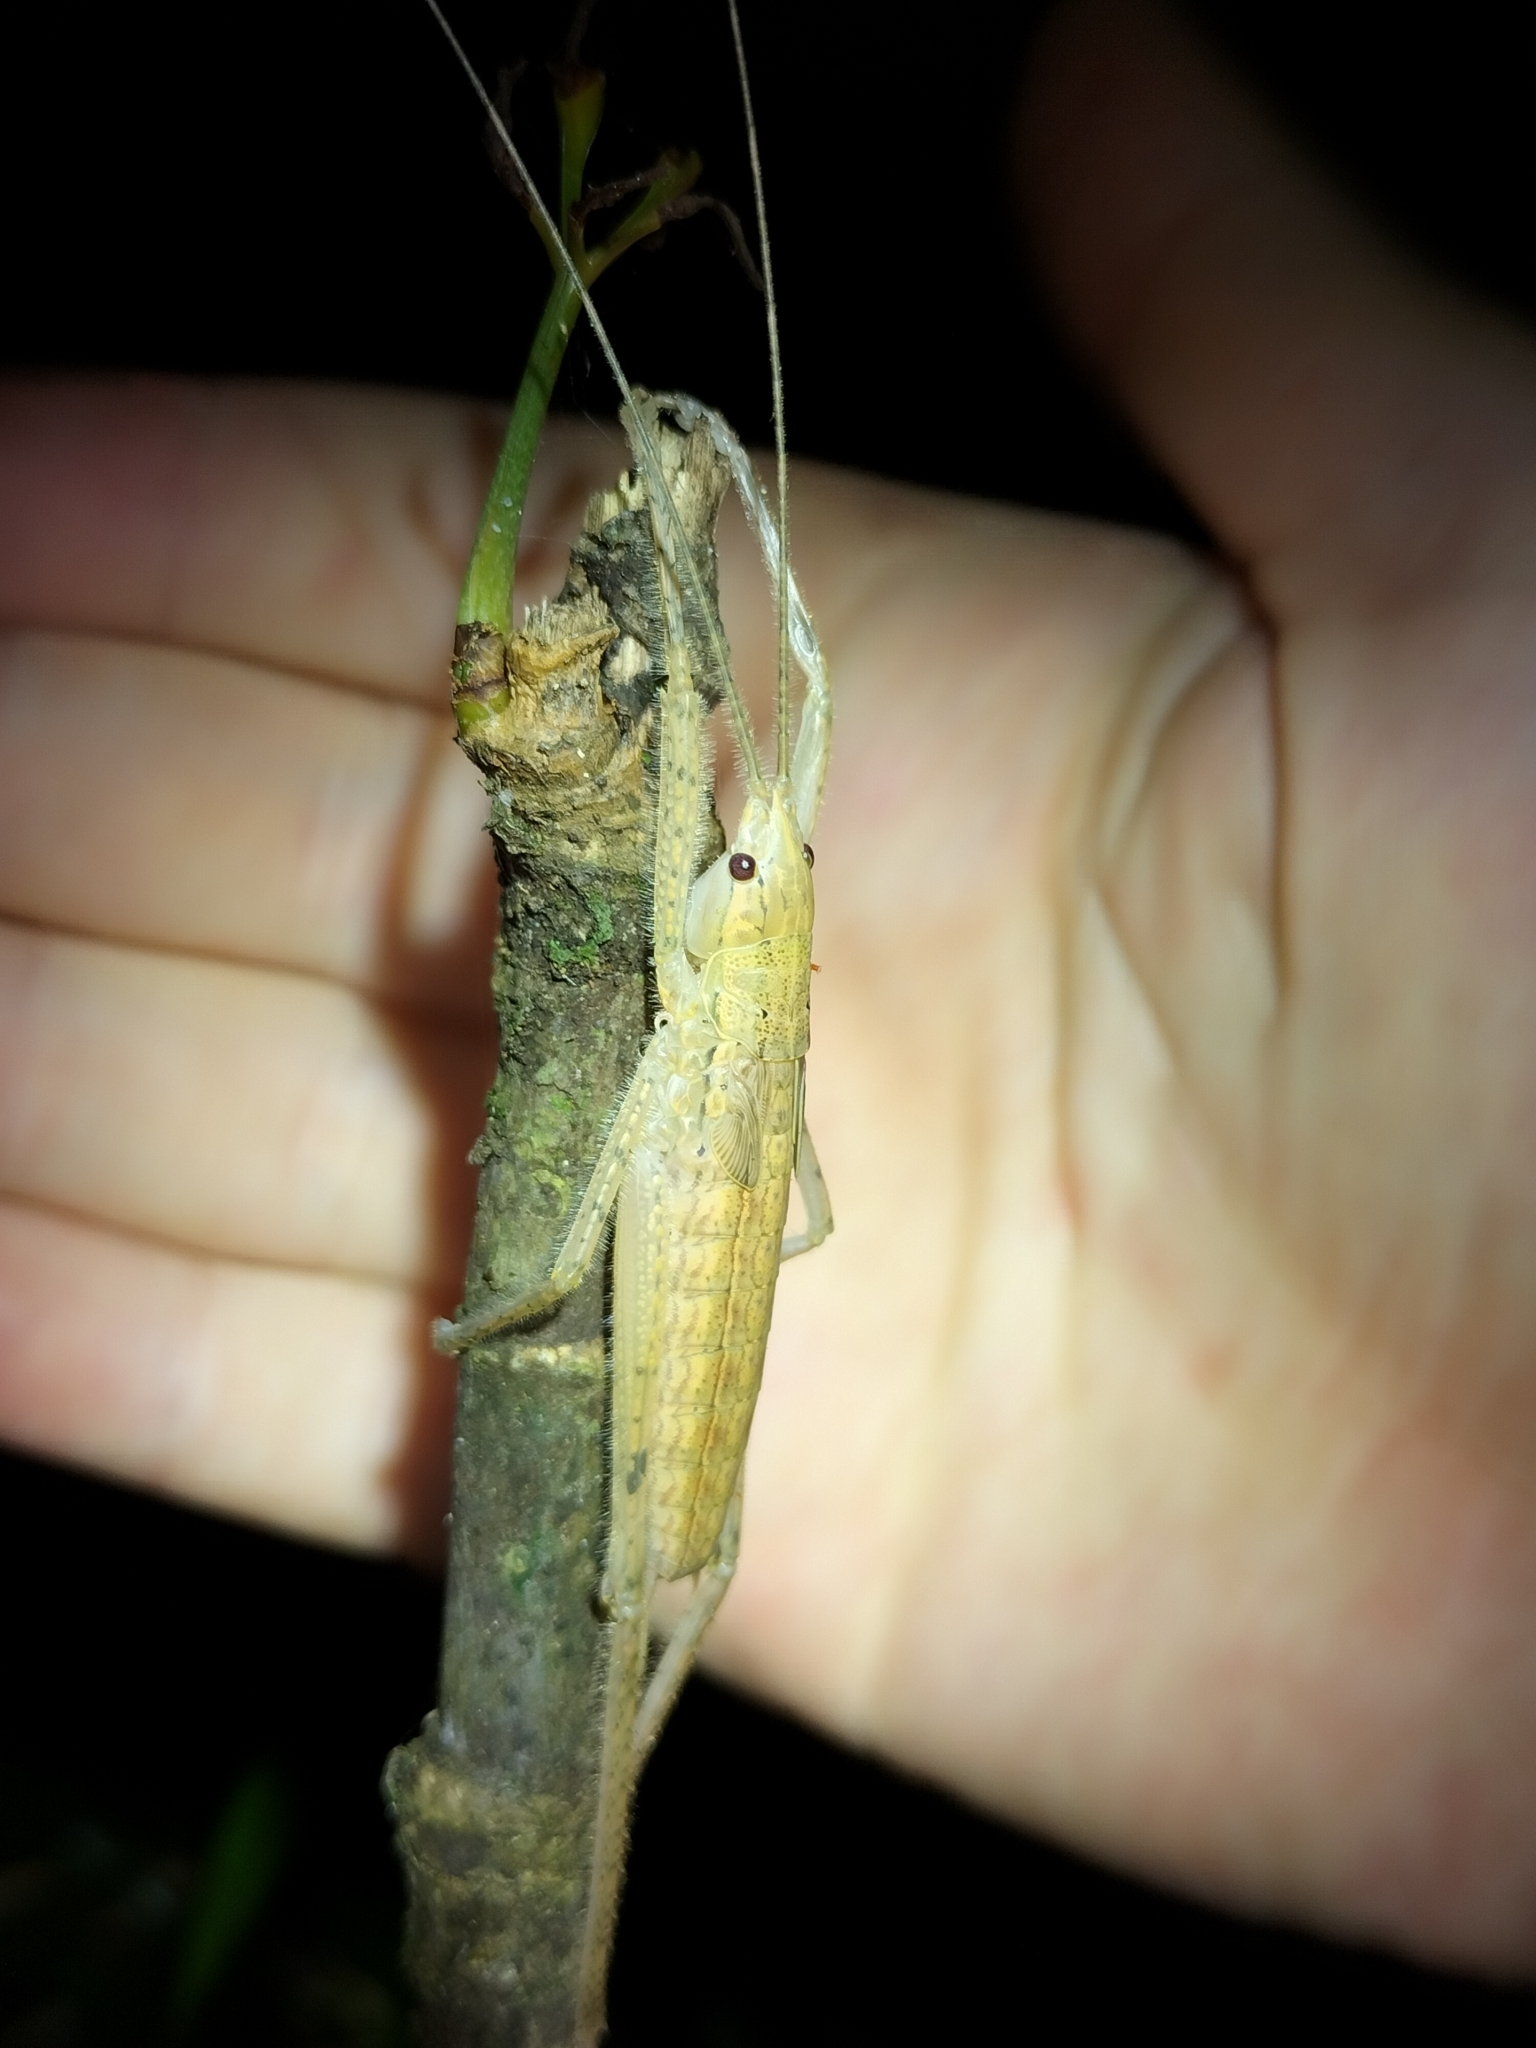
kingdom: Animalia
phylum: Arthropoda
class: Insecta
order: Orthoptera
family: Tettigoniidae
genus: Segestidea
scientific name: Segestidea queenslandica
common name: Queensland palm katydid
